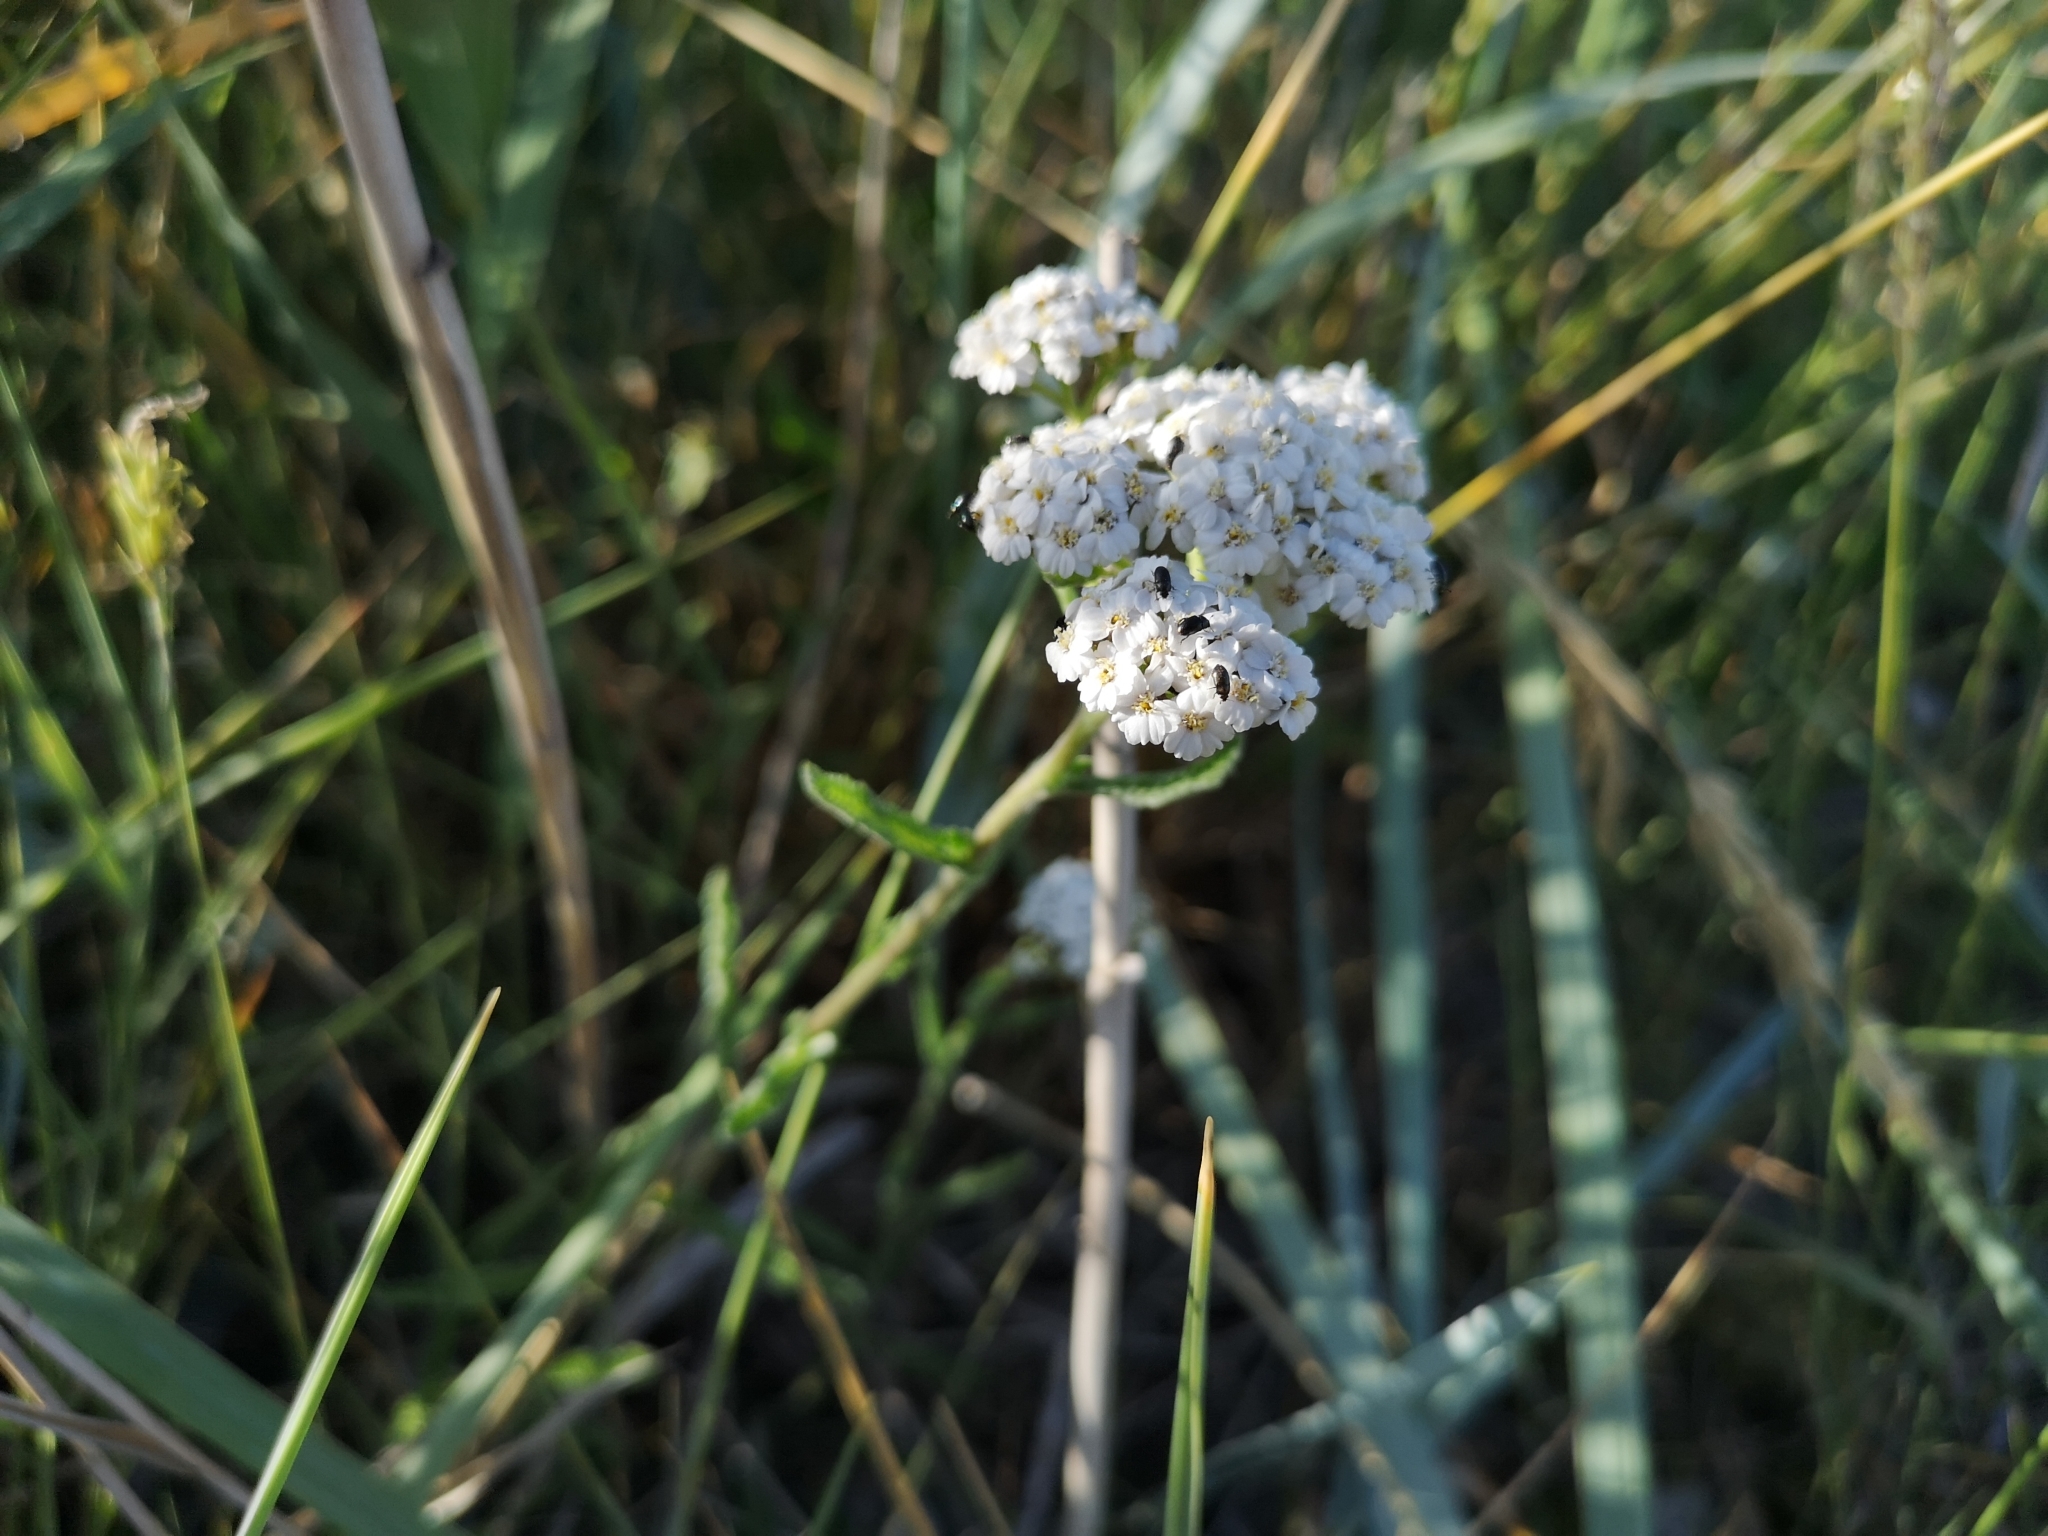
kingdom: Plantae
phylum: Tracheophyta
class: Magnoliopsida
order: Asterales
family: Asteraceae
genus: Achillea
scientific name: Achillea millefolium
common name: Yarrow
